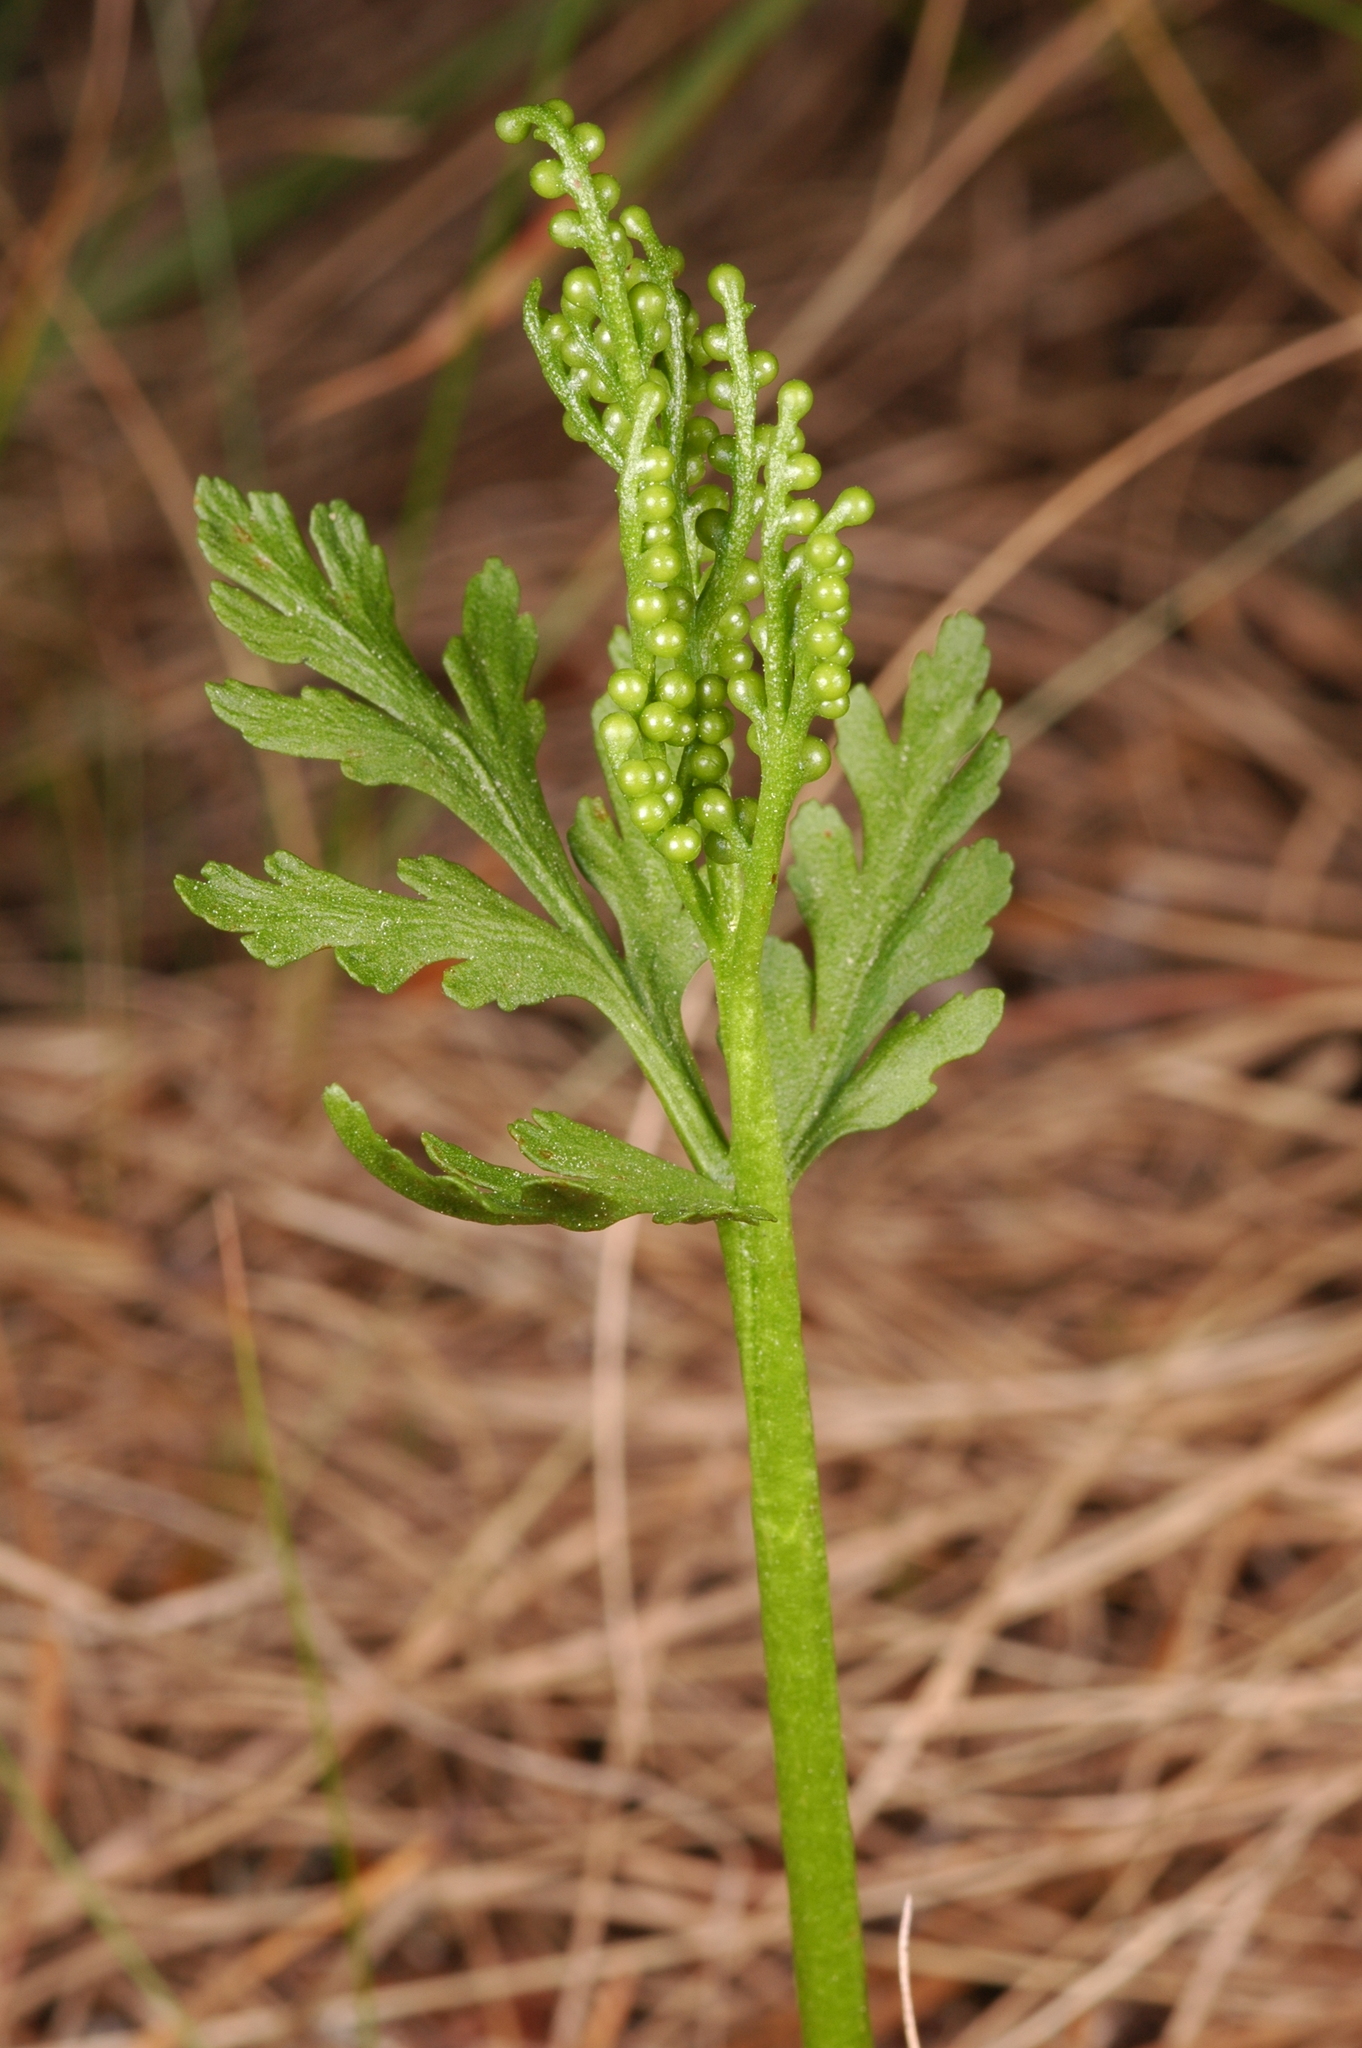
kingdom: Plantae
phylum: Tracheophyta
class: Polypodiopsida
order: Ophioglossales
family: Ophioglossaceae
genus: Botrychium
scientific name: Botrychium lanceolatum
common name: Lance-leaved moonwort
